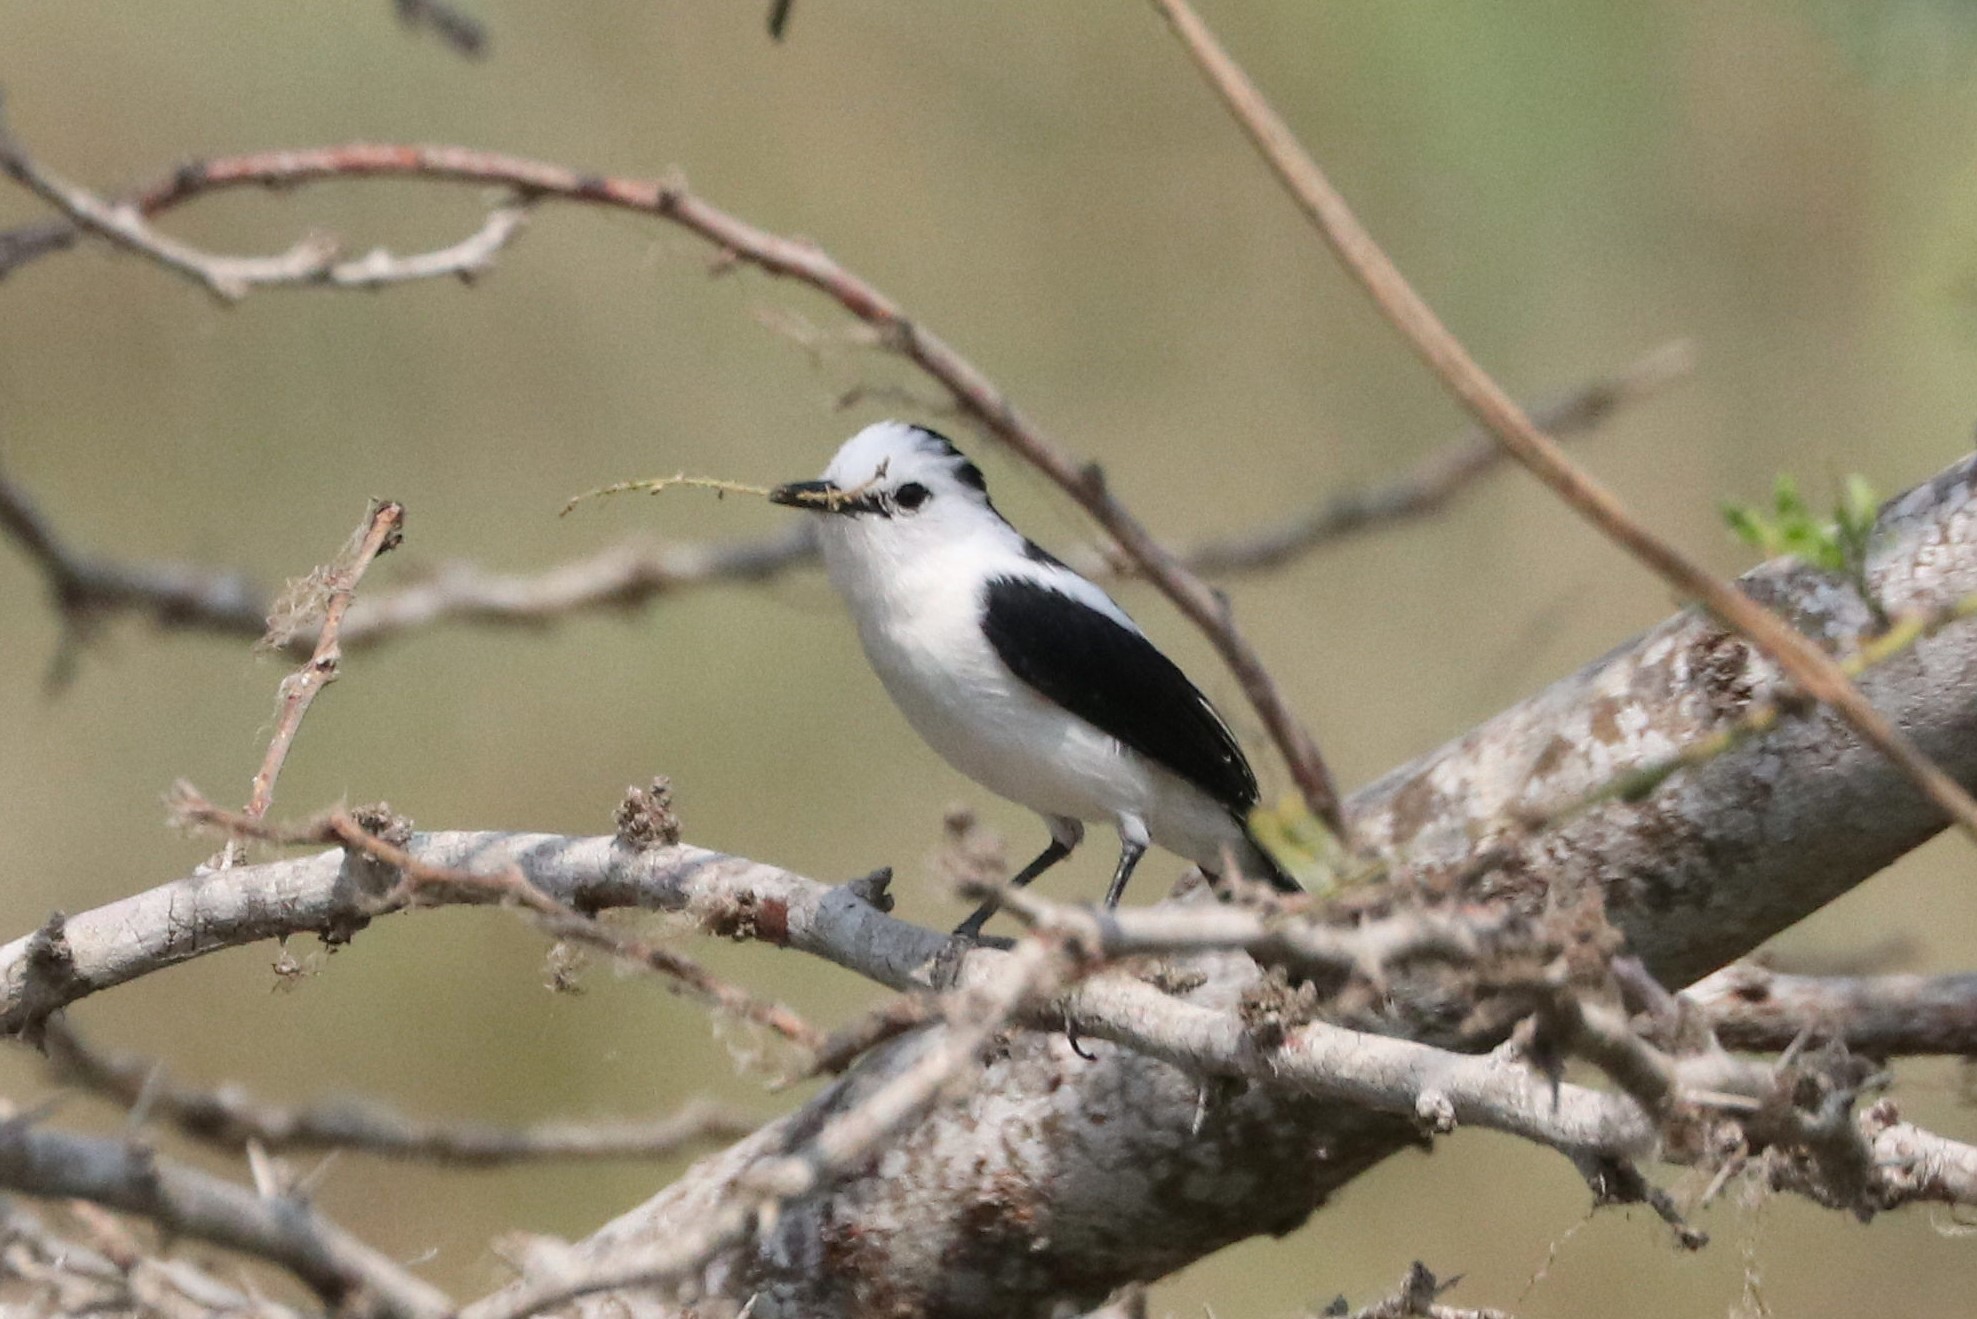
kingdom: Animalia
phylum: Chordata
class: Aves
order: Passeriformes
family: Tyrannidae
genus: Fluvicola
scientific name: Fluvicola pica
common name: Pied water-tyrant
